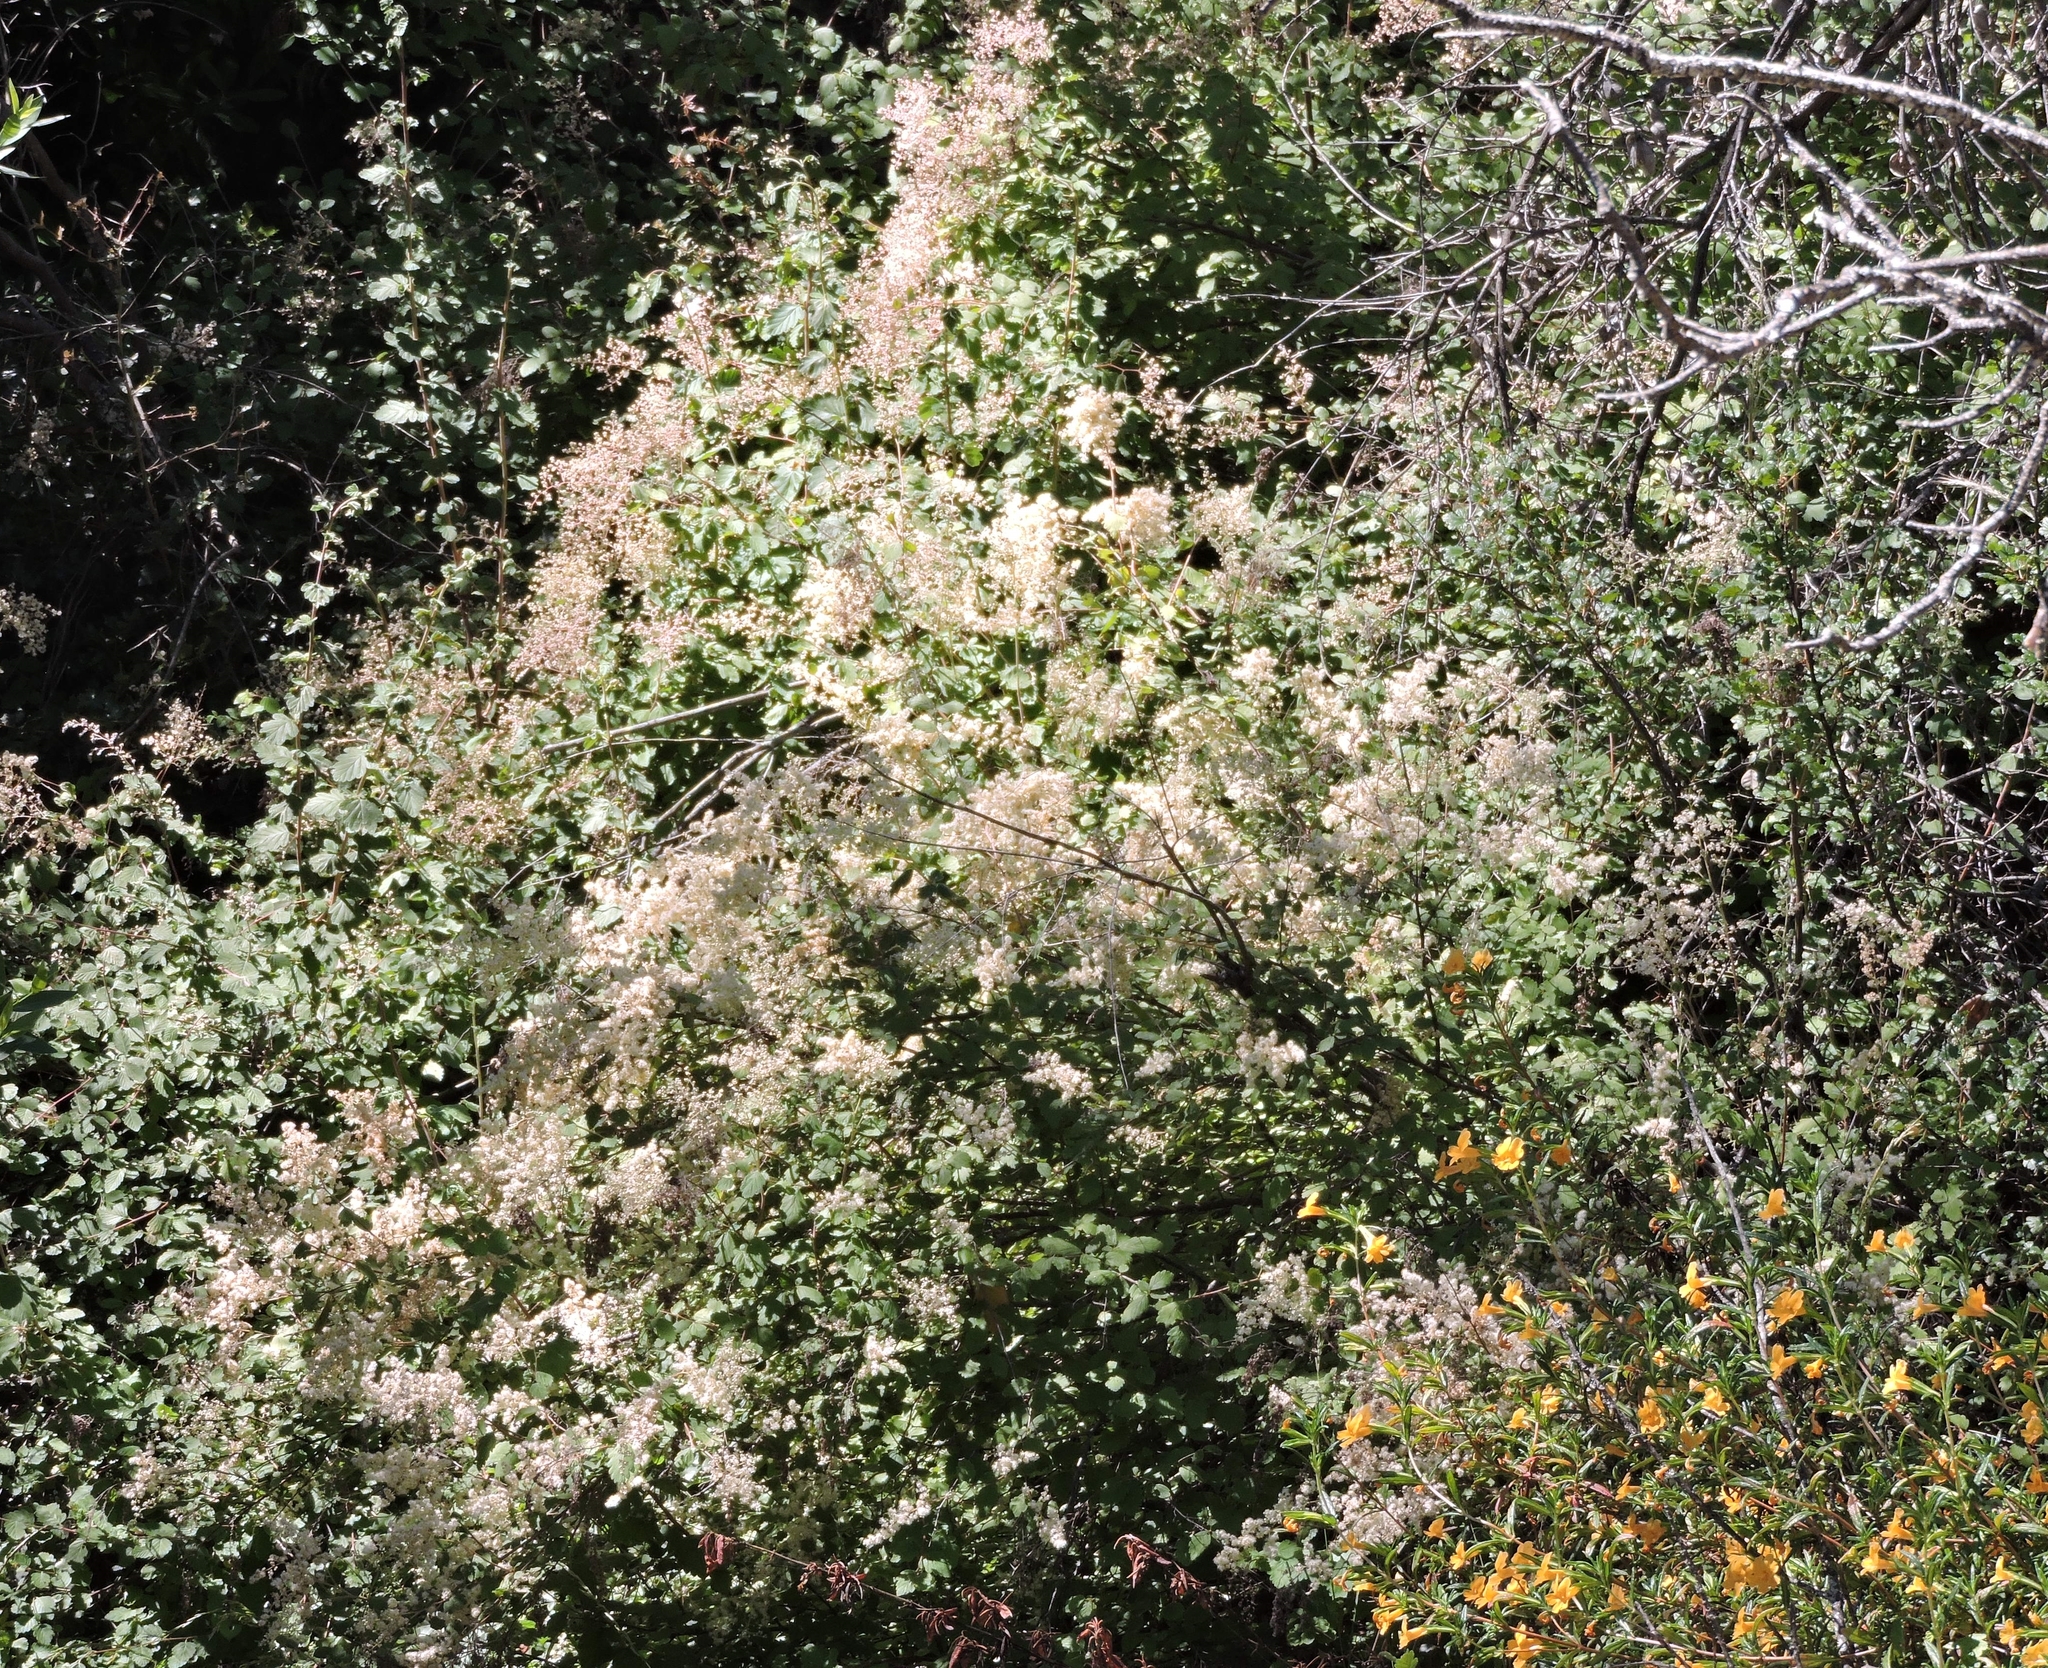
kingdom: Plantae
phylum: Tracheophyta
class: Magnoliopsida
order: Rosales
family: Rosaceae
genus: Holodiscus
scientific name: Holodiscus discolor
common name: Oceanspray
